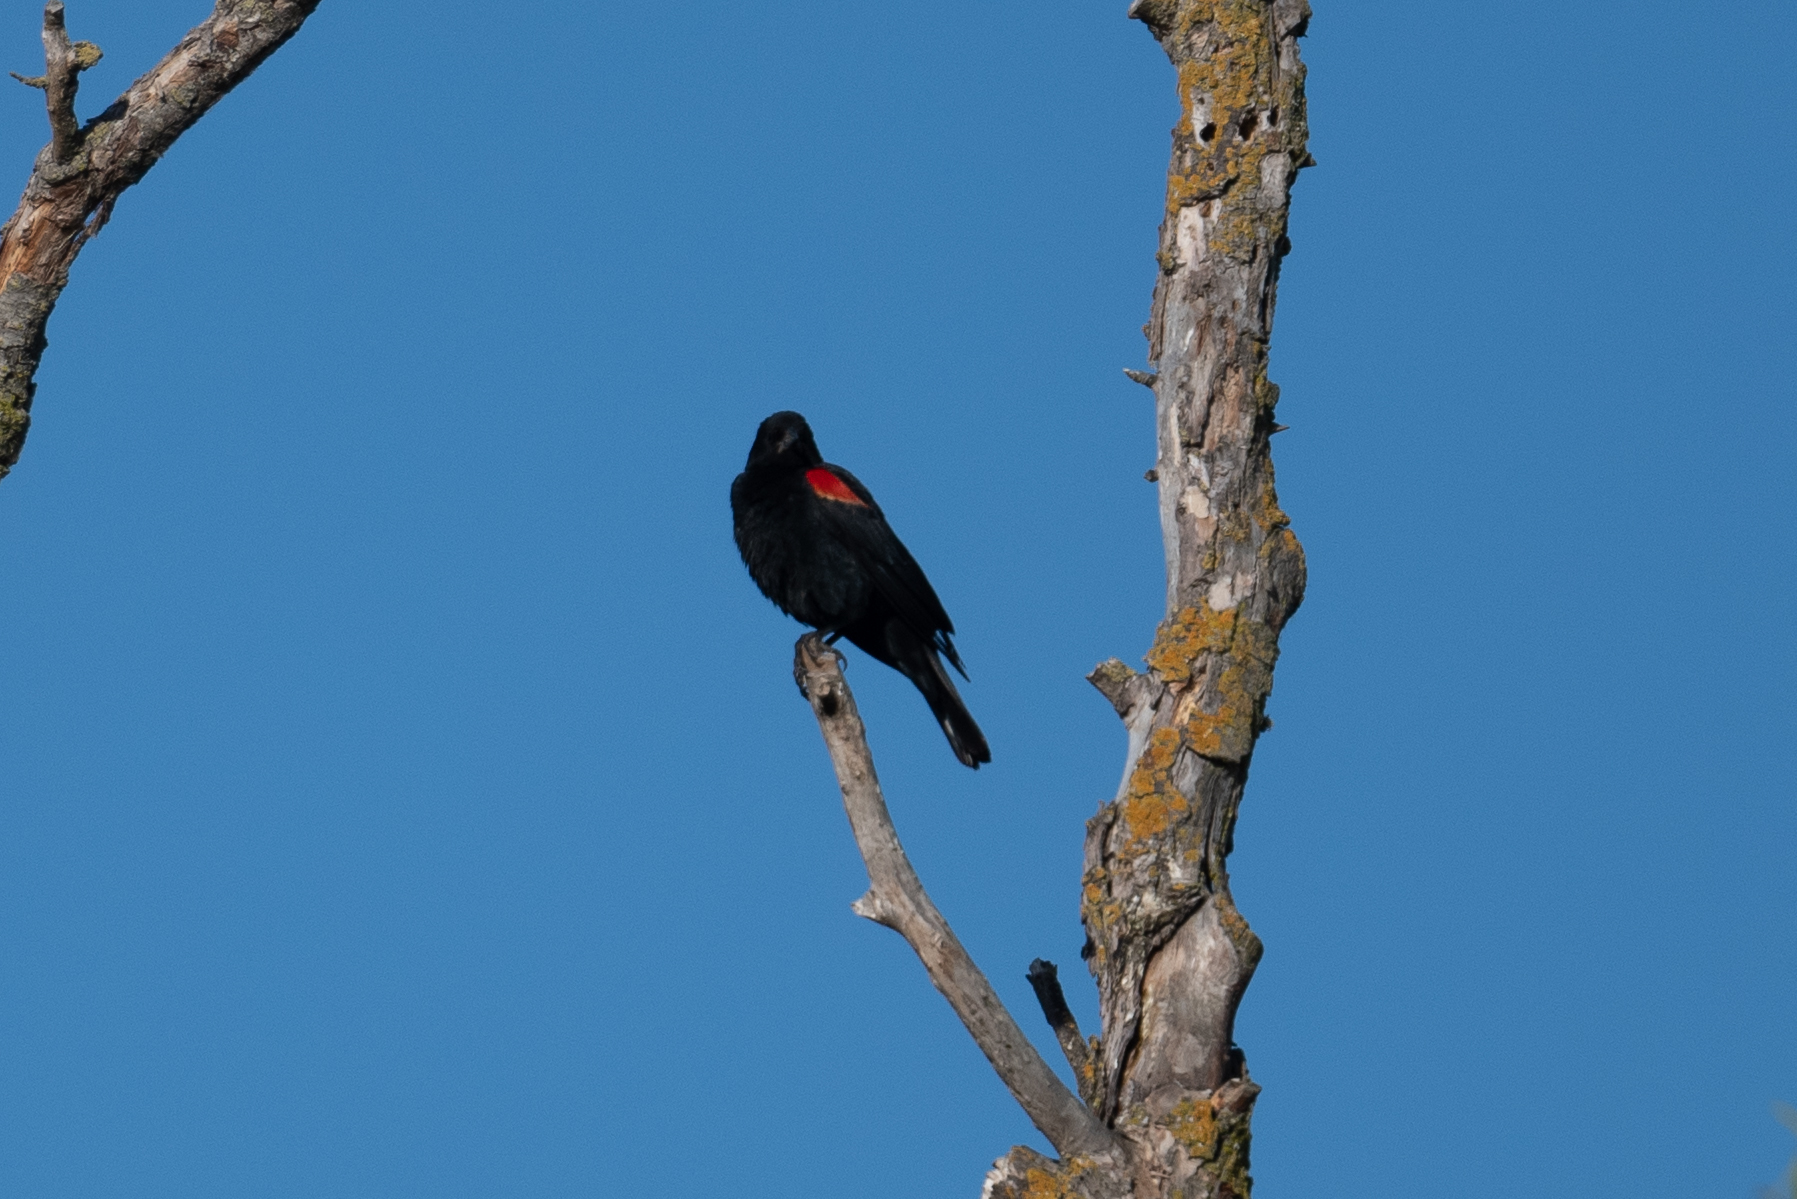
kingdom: Animalia
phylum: Chordata
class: Aves
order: Passeriformes
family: Icteridae
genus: Agelaius
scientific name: Agelaius phoeniceus
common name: Red-winged blackbird
